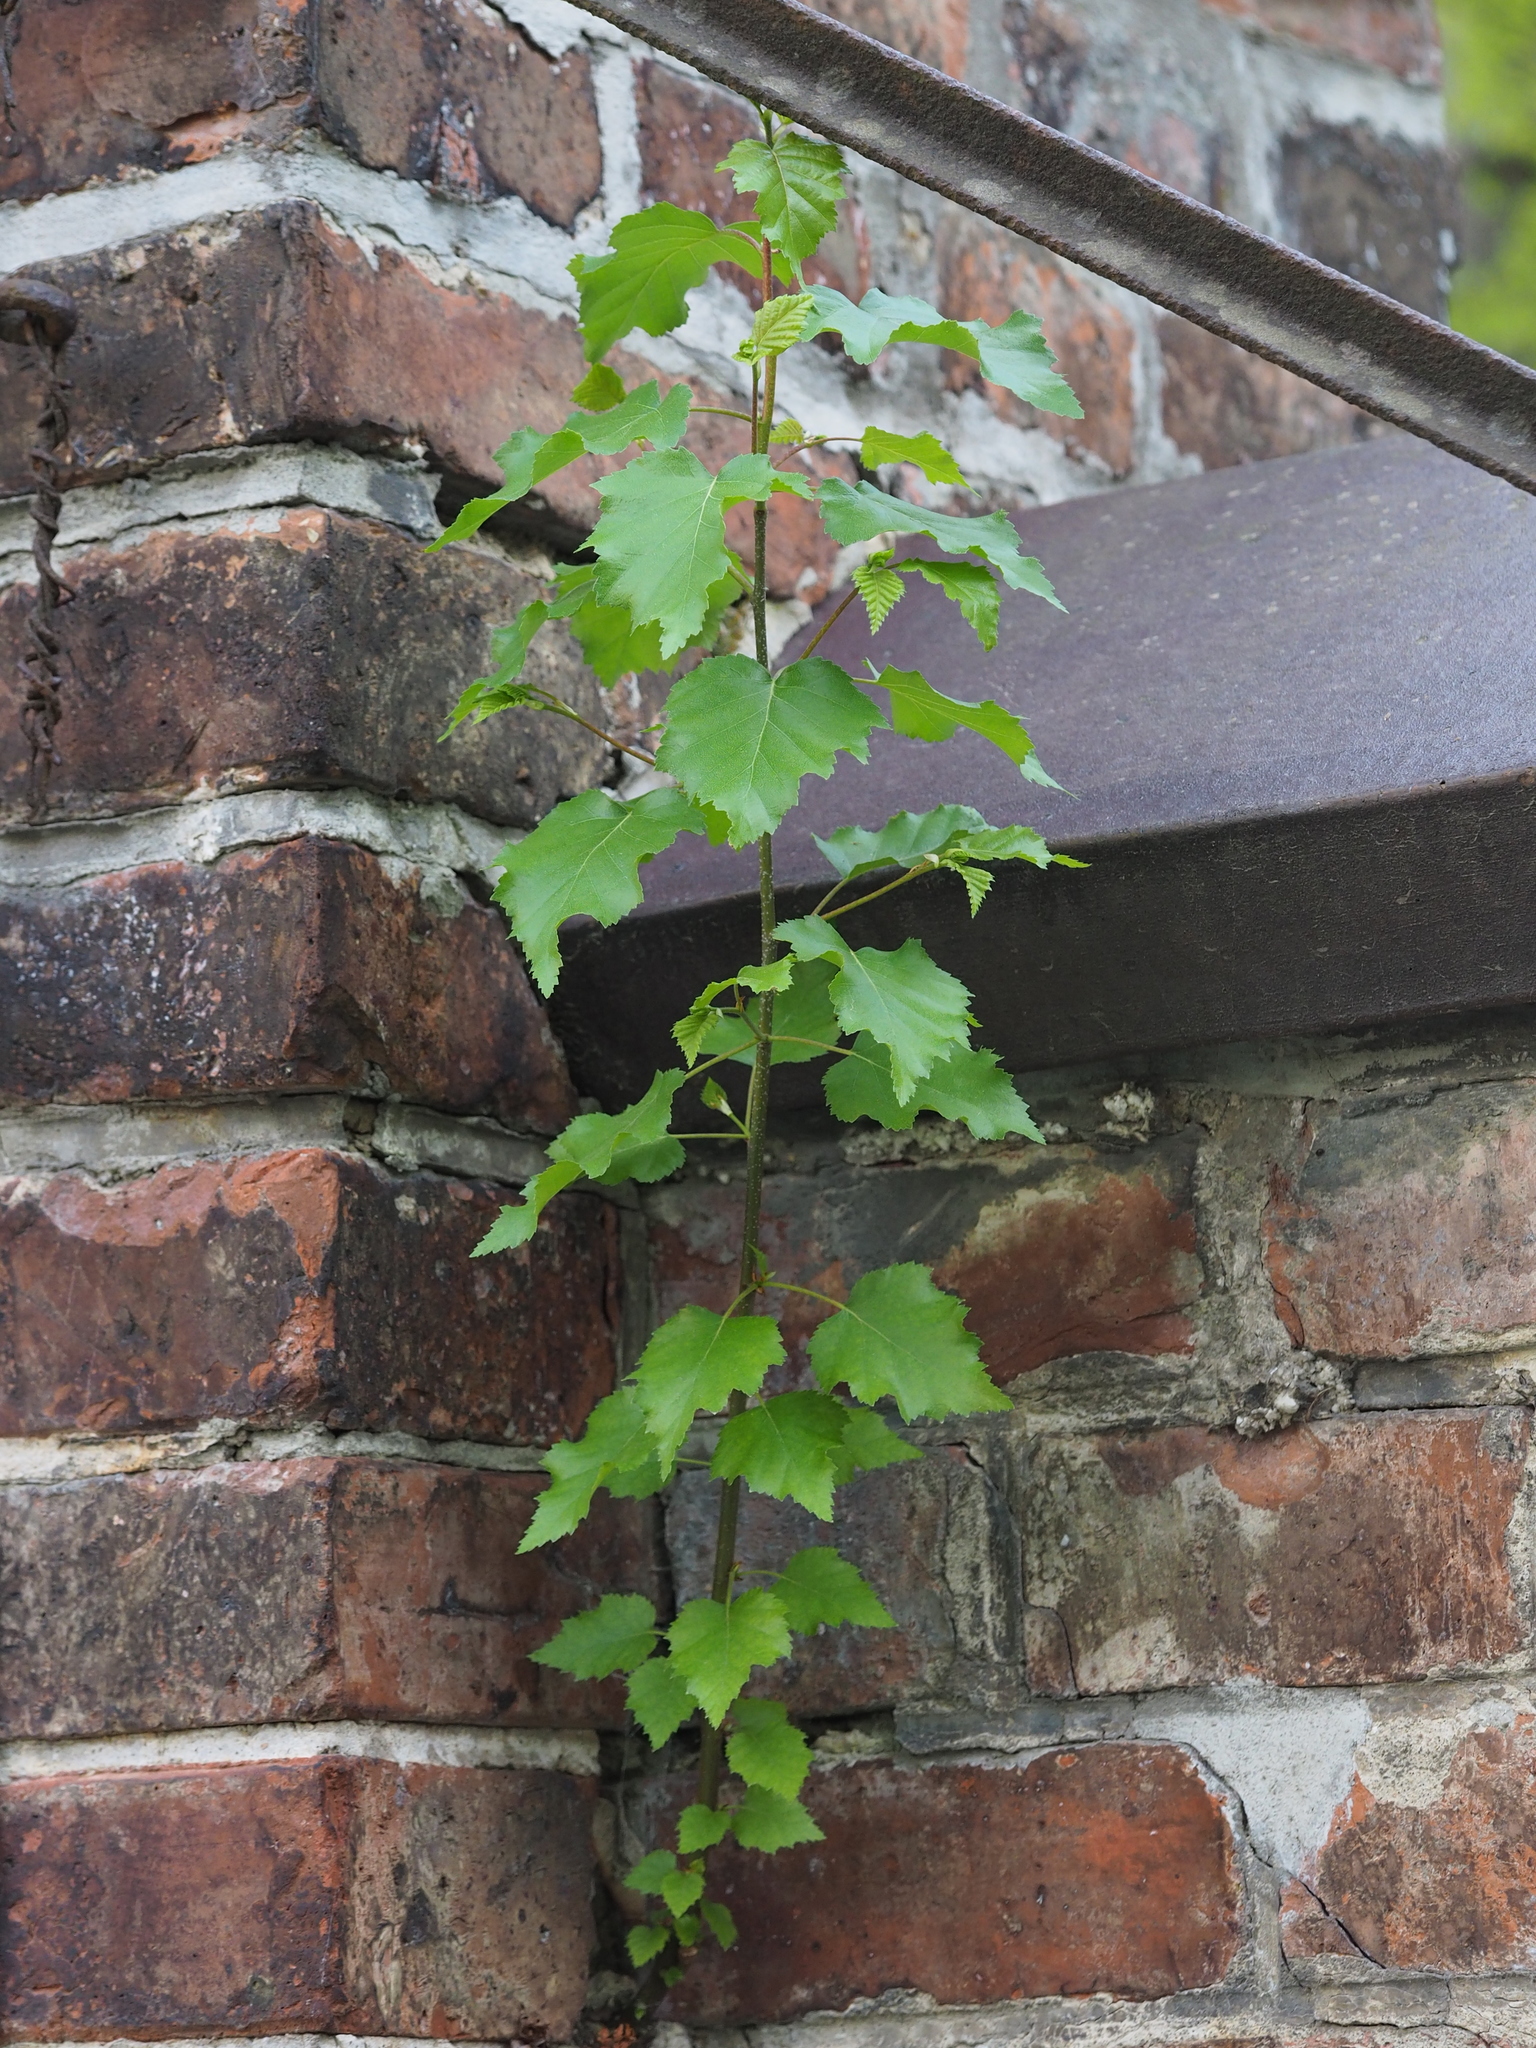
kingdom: Plantae
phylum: Tracheophyta
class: Magnoliopsida
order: Fagales
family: Betulaceae
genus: Betula
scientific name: Betula pendula
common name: Silver birch
